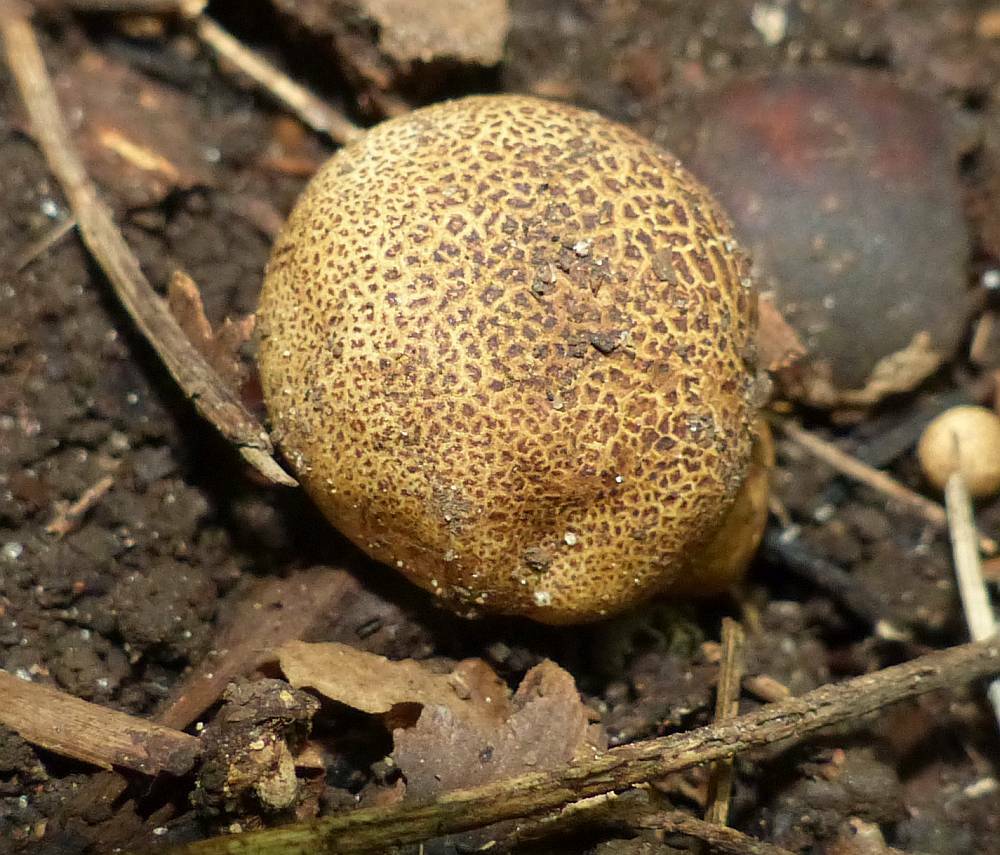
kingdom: Fungi
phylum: Basidiomycota
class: Agaricomycetes
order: Boletales
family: Sclerodermataceae
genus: Scleroderma
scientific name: Scleroderma citrinum
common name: Common earthball
